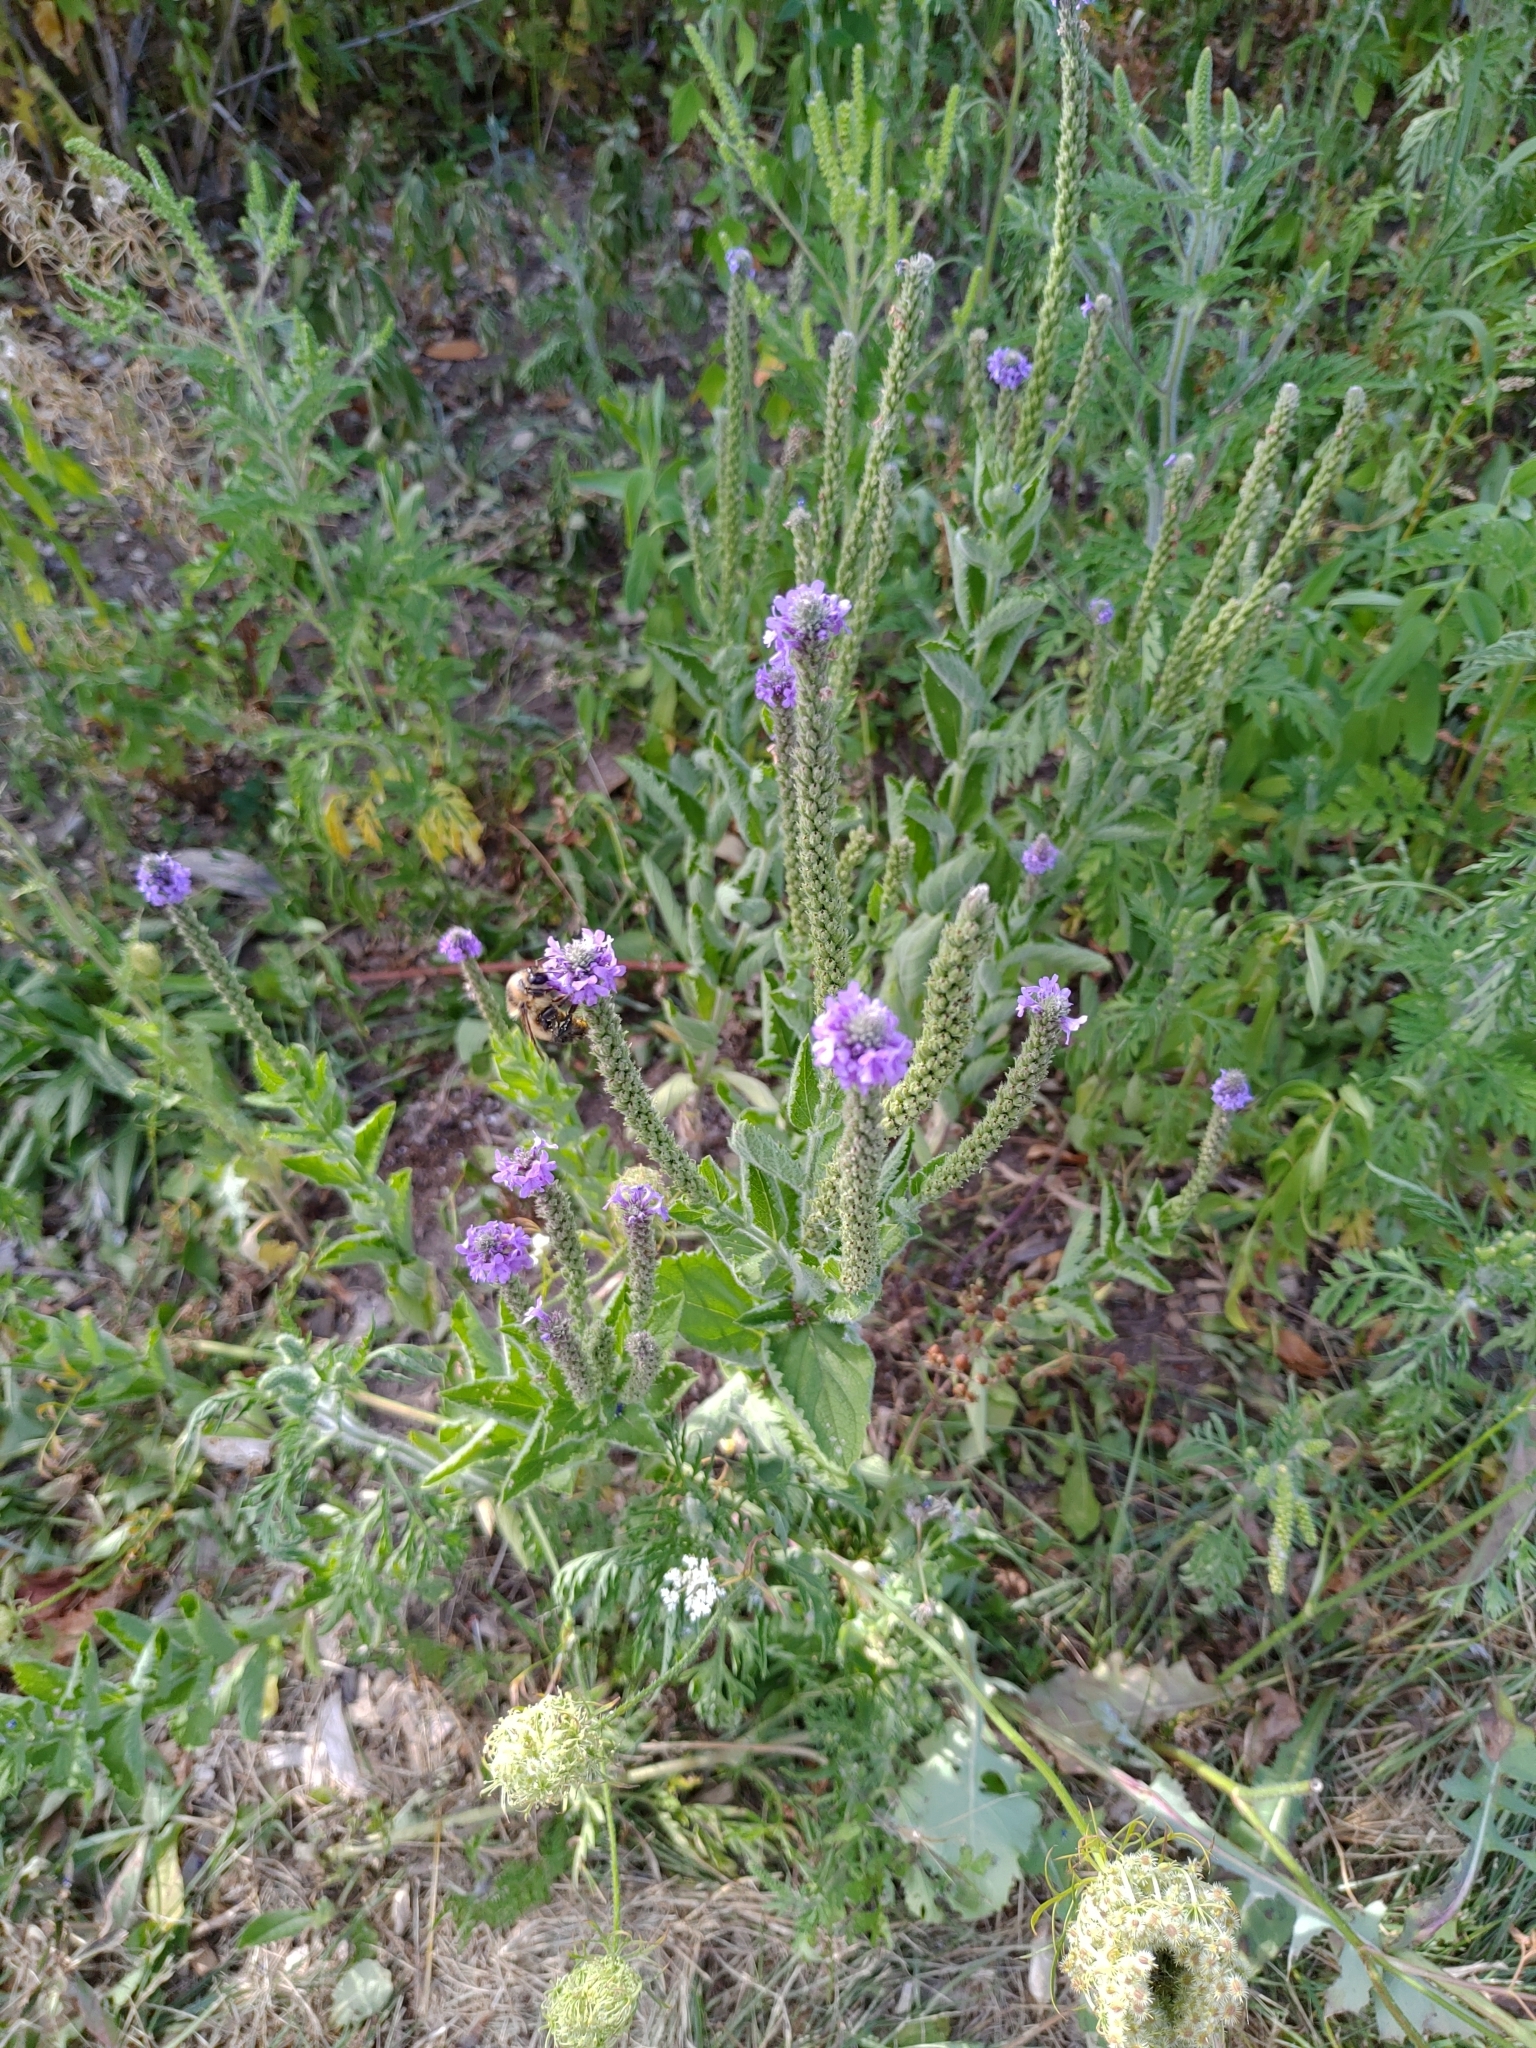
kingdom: Plantae
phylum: Tracheophyta
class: Magnoliopsida
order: Lamiales
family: Verbenaceae
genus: Verbena
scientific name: Verbena stricta
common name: Hoary vervain
